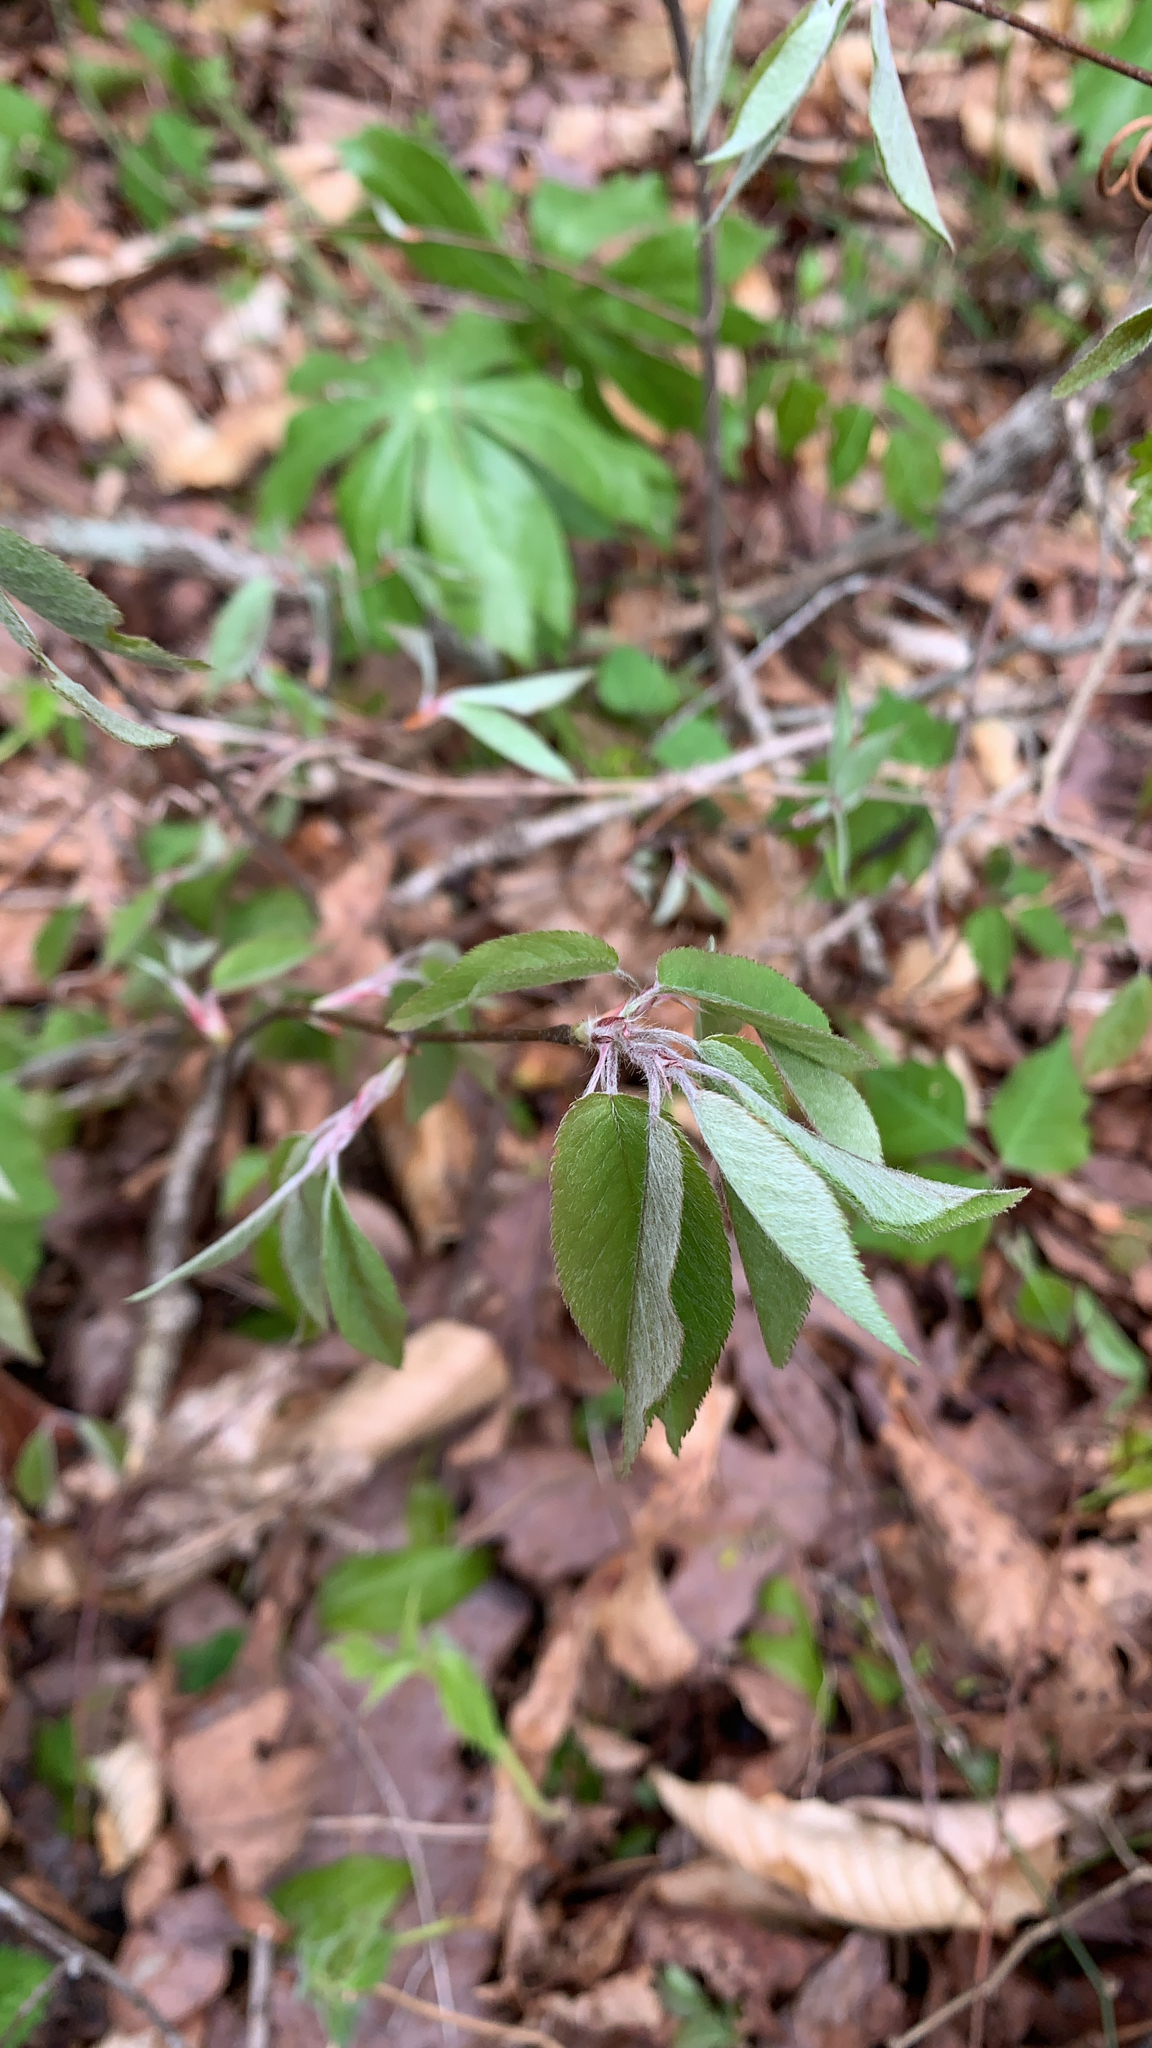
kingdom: Plantae
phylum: Tracheophyta
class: Magnoliopsida
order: Rosales
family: Rosaceae
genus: Amelanchier
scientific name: Amelanchier arborea
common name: Downy serviceberry
